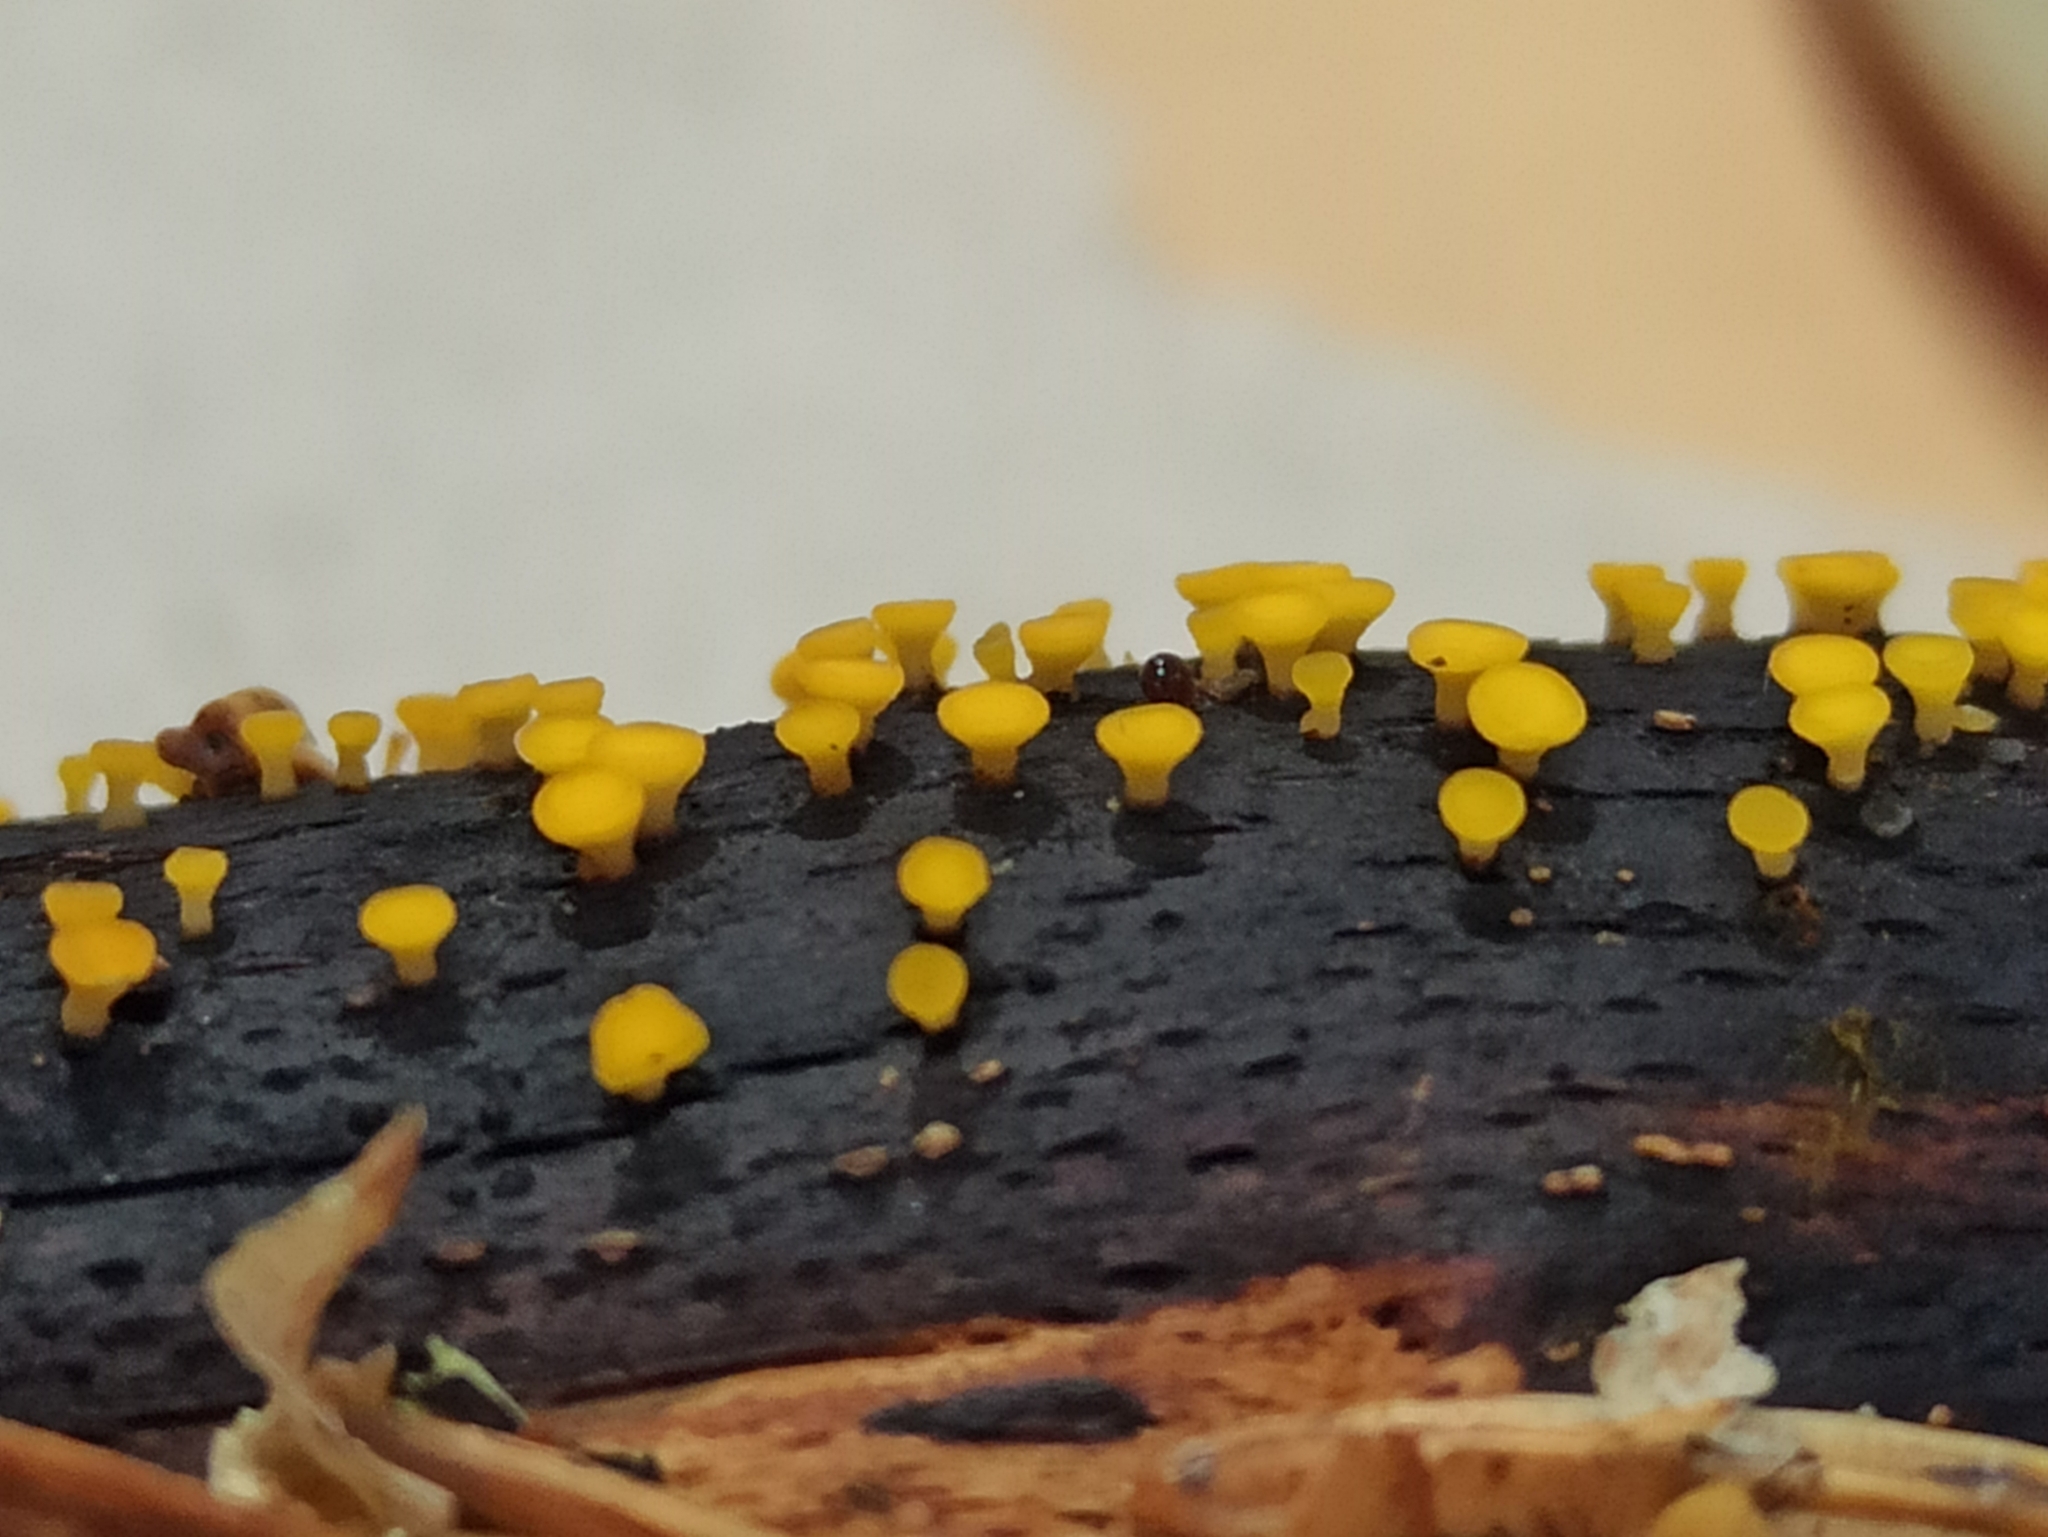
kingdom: Fungi
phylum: Ascomycota
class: Leotiomycetes
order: Helotiales
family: Pezizellaceae
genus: Calycina
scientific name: Calycina citrina
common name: Yellow fairy cups
